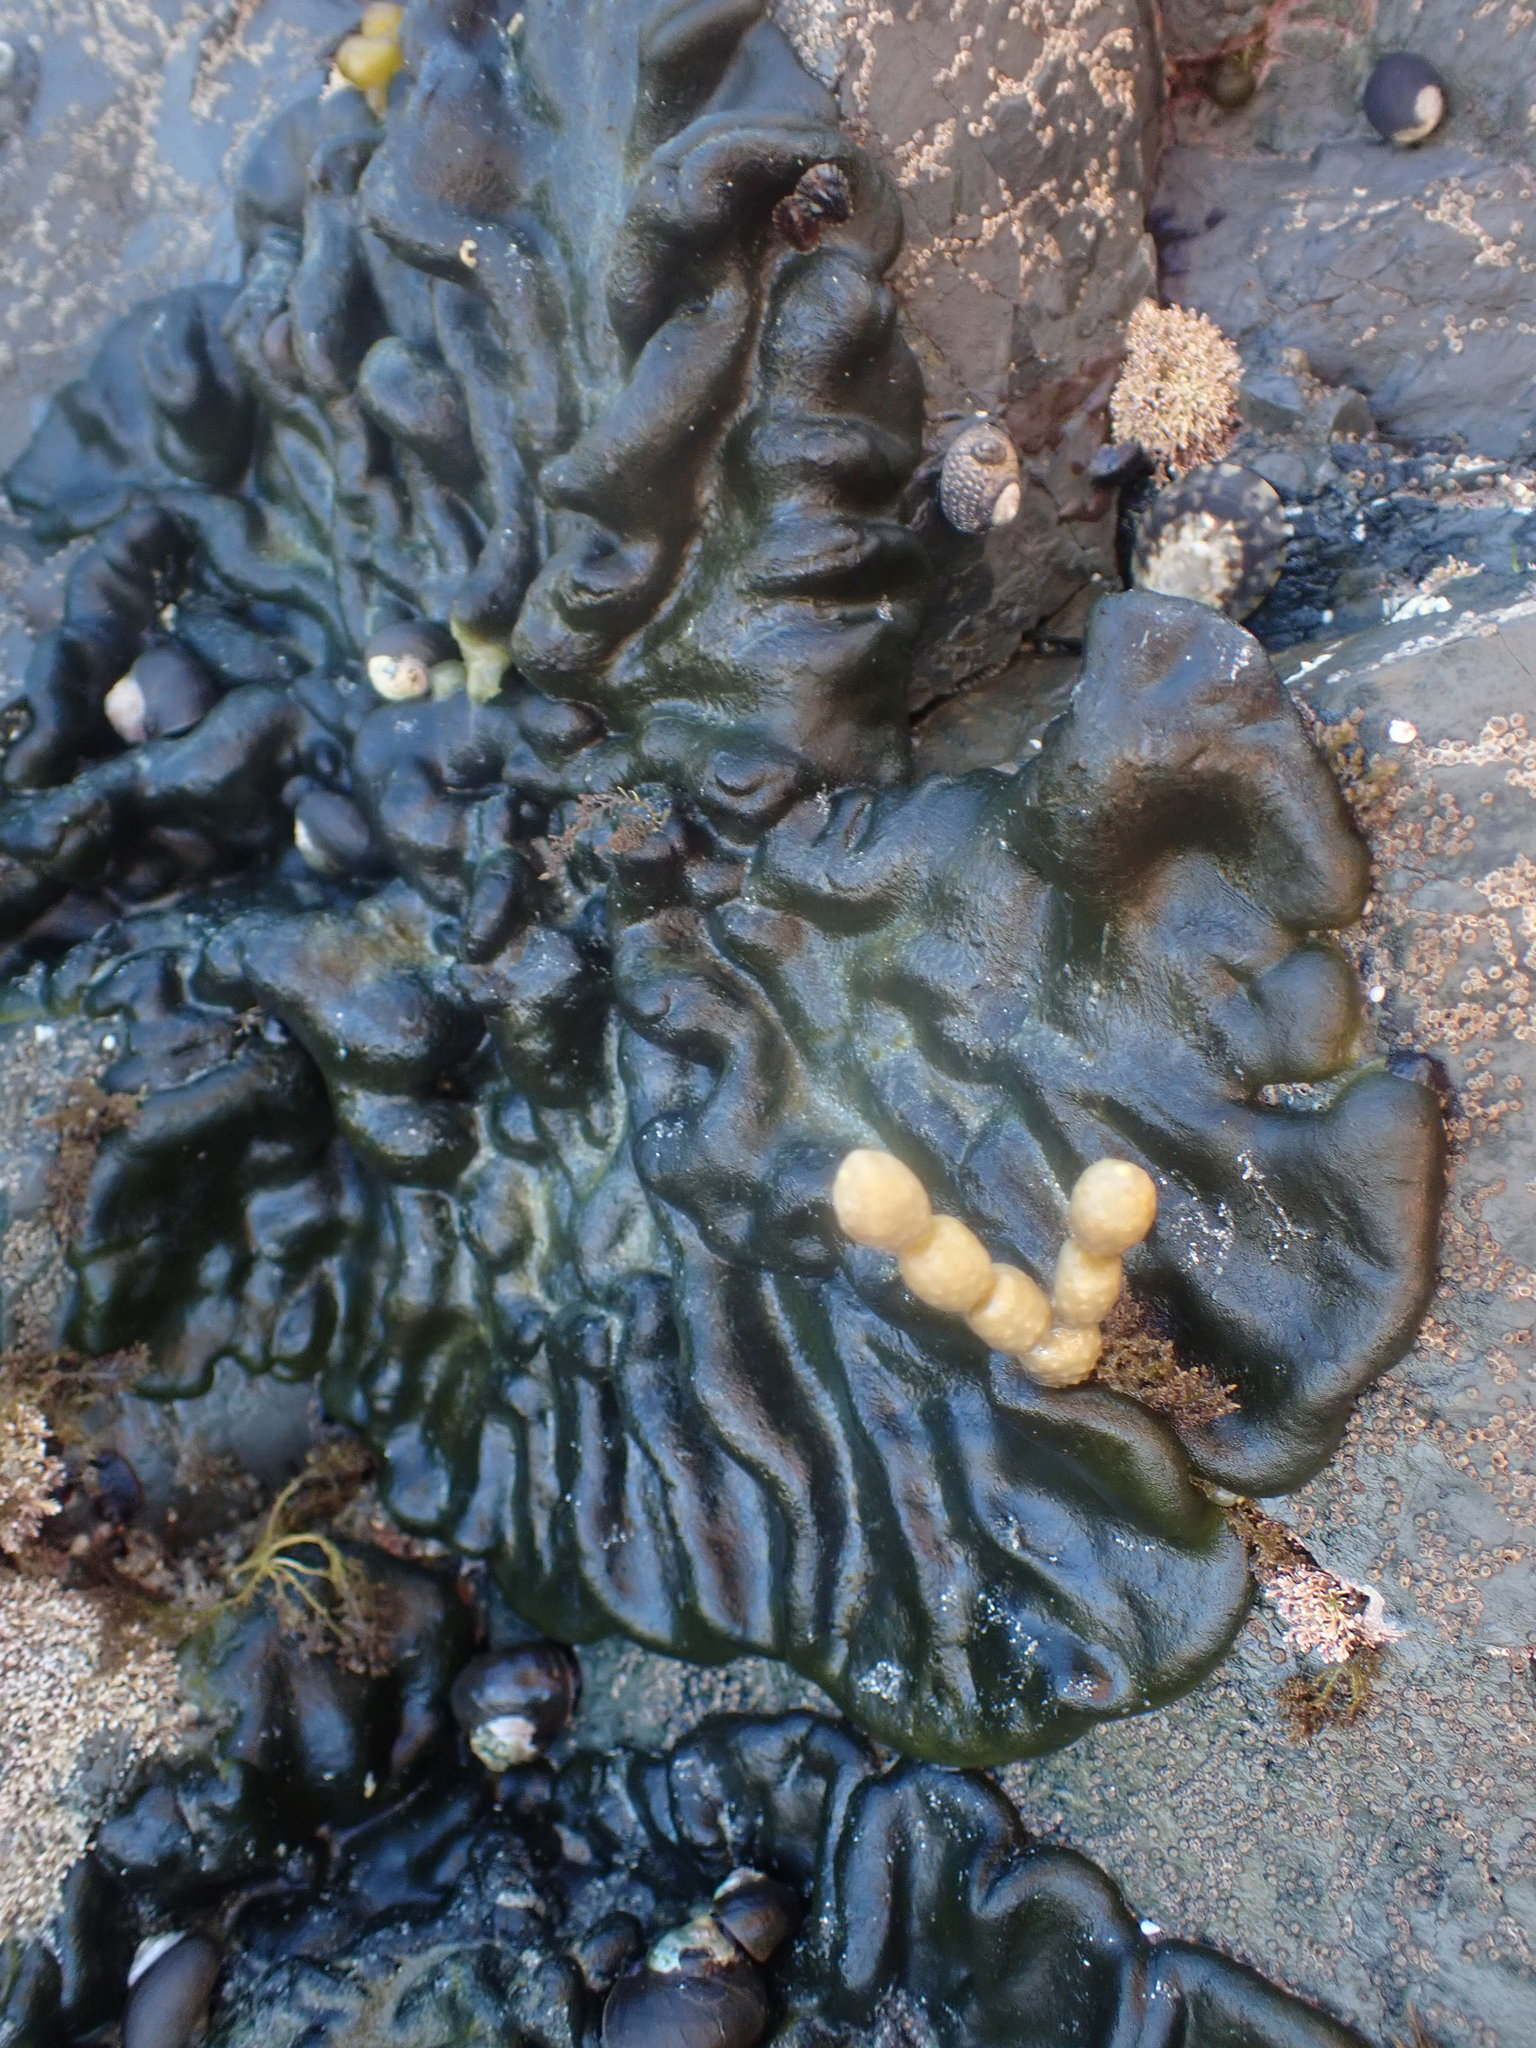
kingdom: Plantae
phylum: Chlorophyta
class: Ulvophyceae
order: Bryopsidales
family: Codiaceae
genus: Codium
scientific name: Codium convolutum
